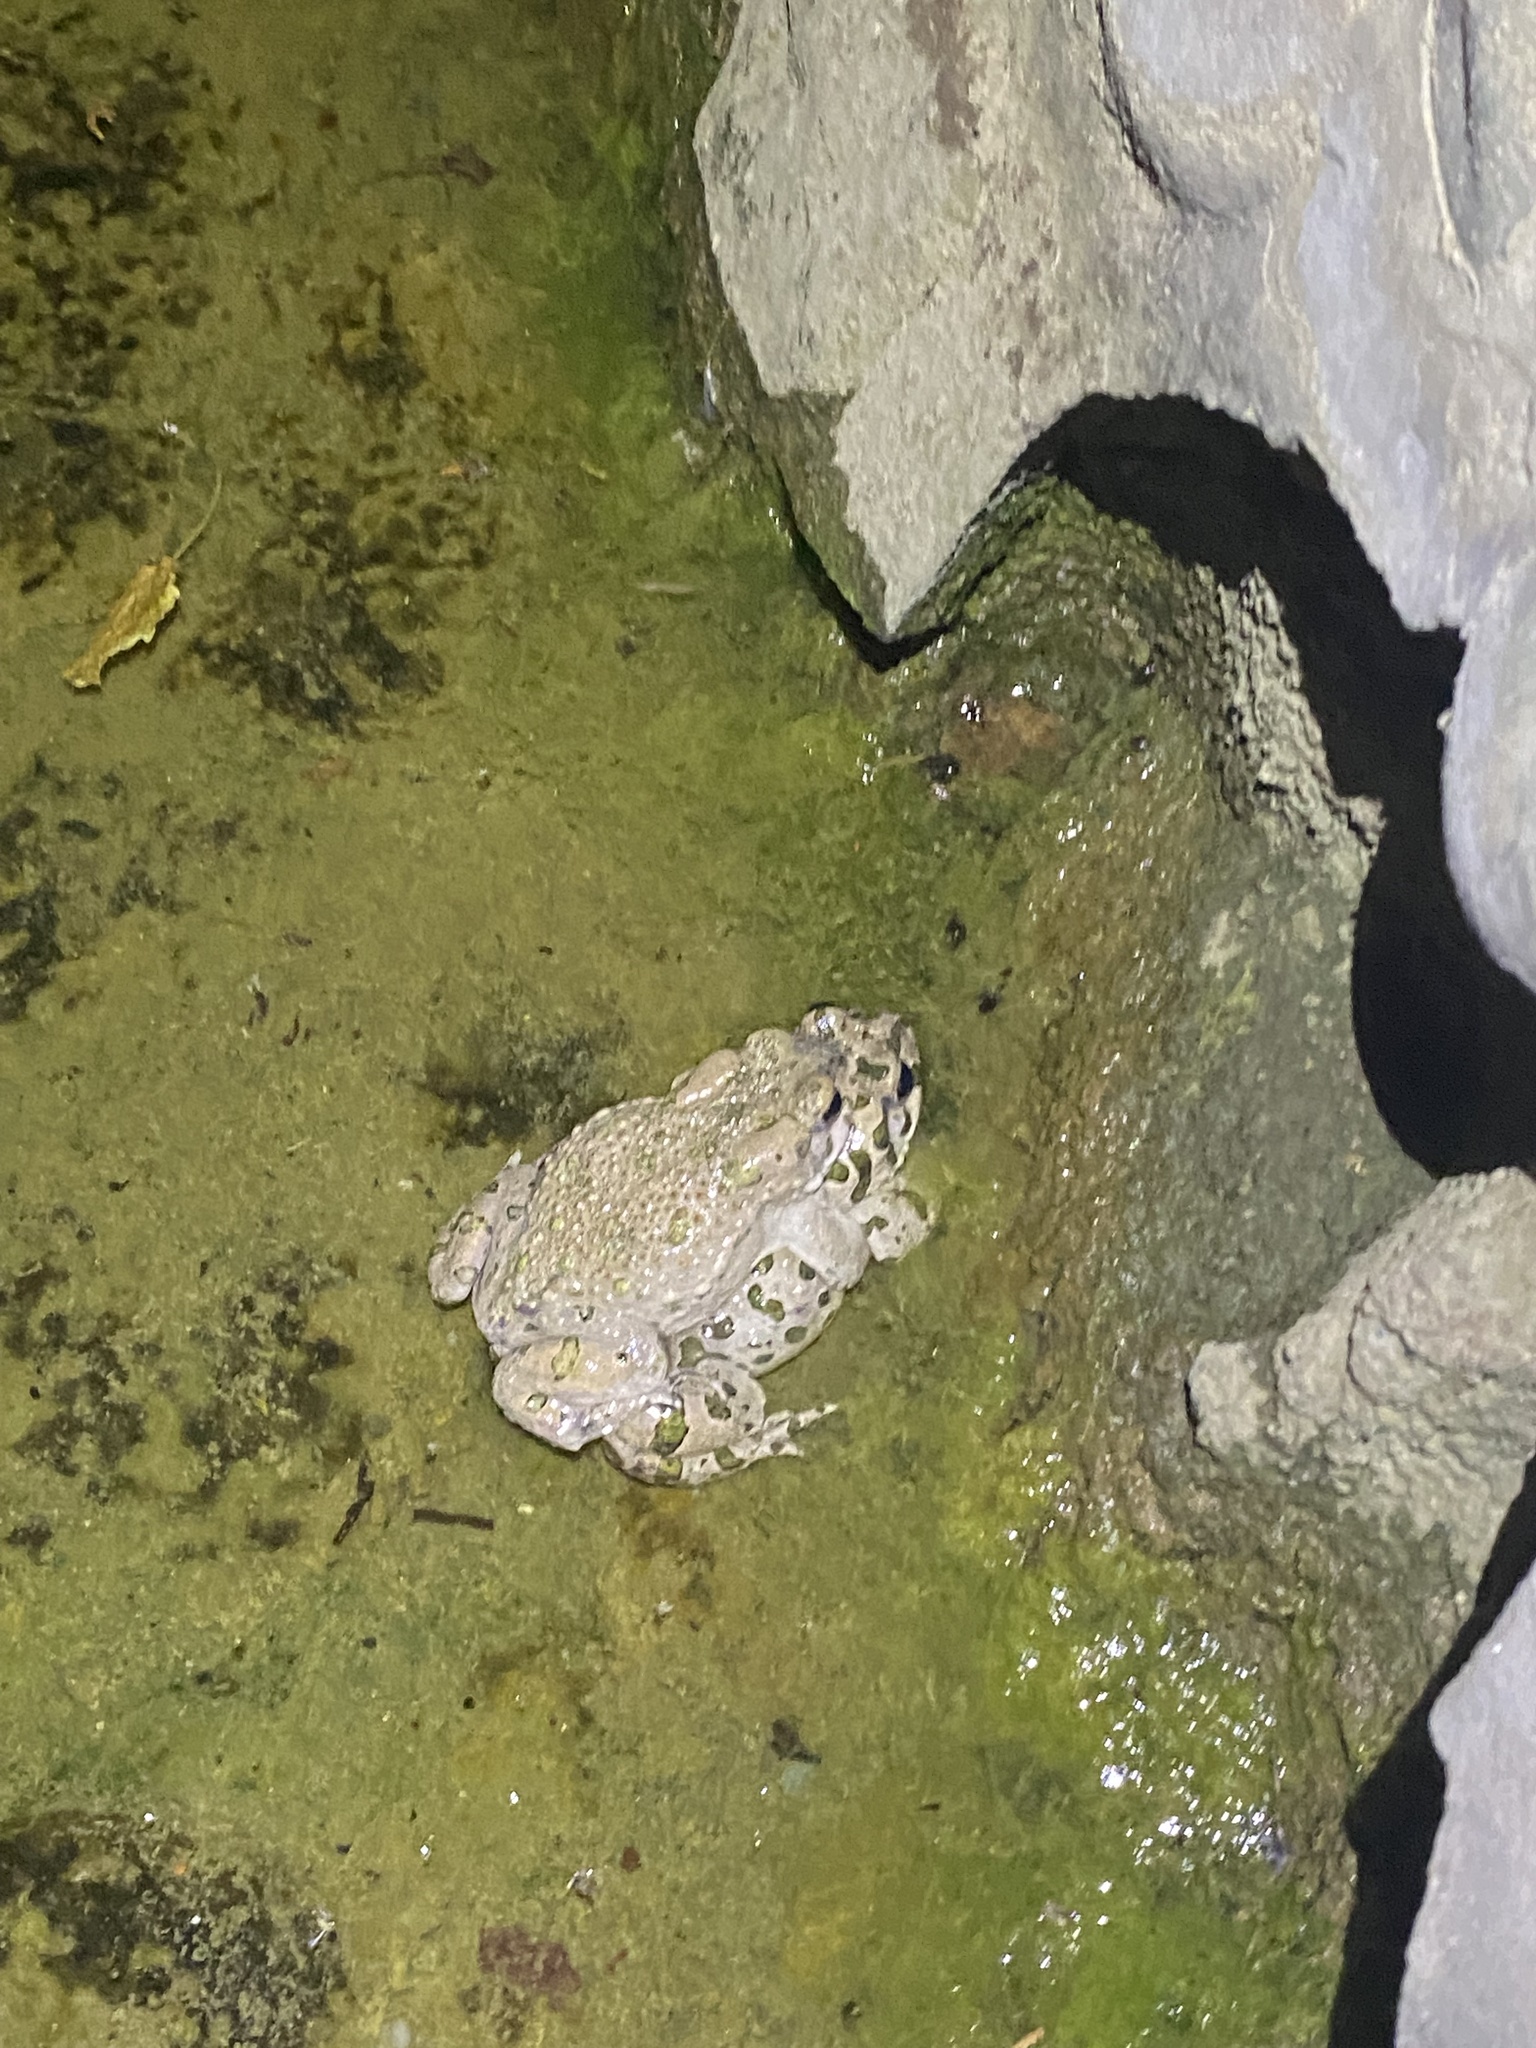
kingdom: Animalia
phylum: Chordata
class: Amphibia
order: Anura
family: Bufonidae
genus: Bufotes
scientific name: Bufotes viridis
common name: European green toad
